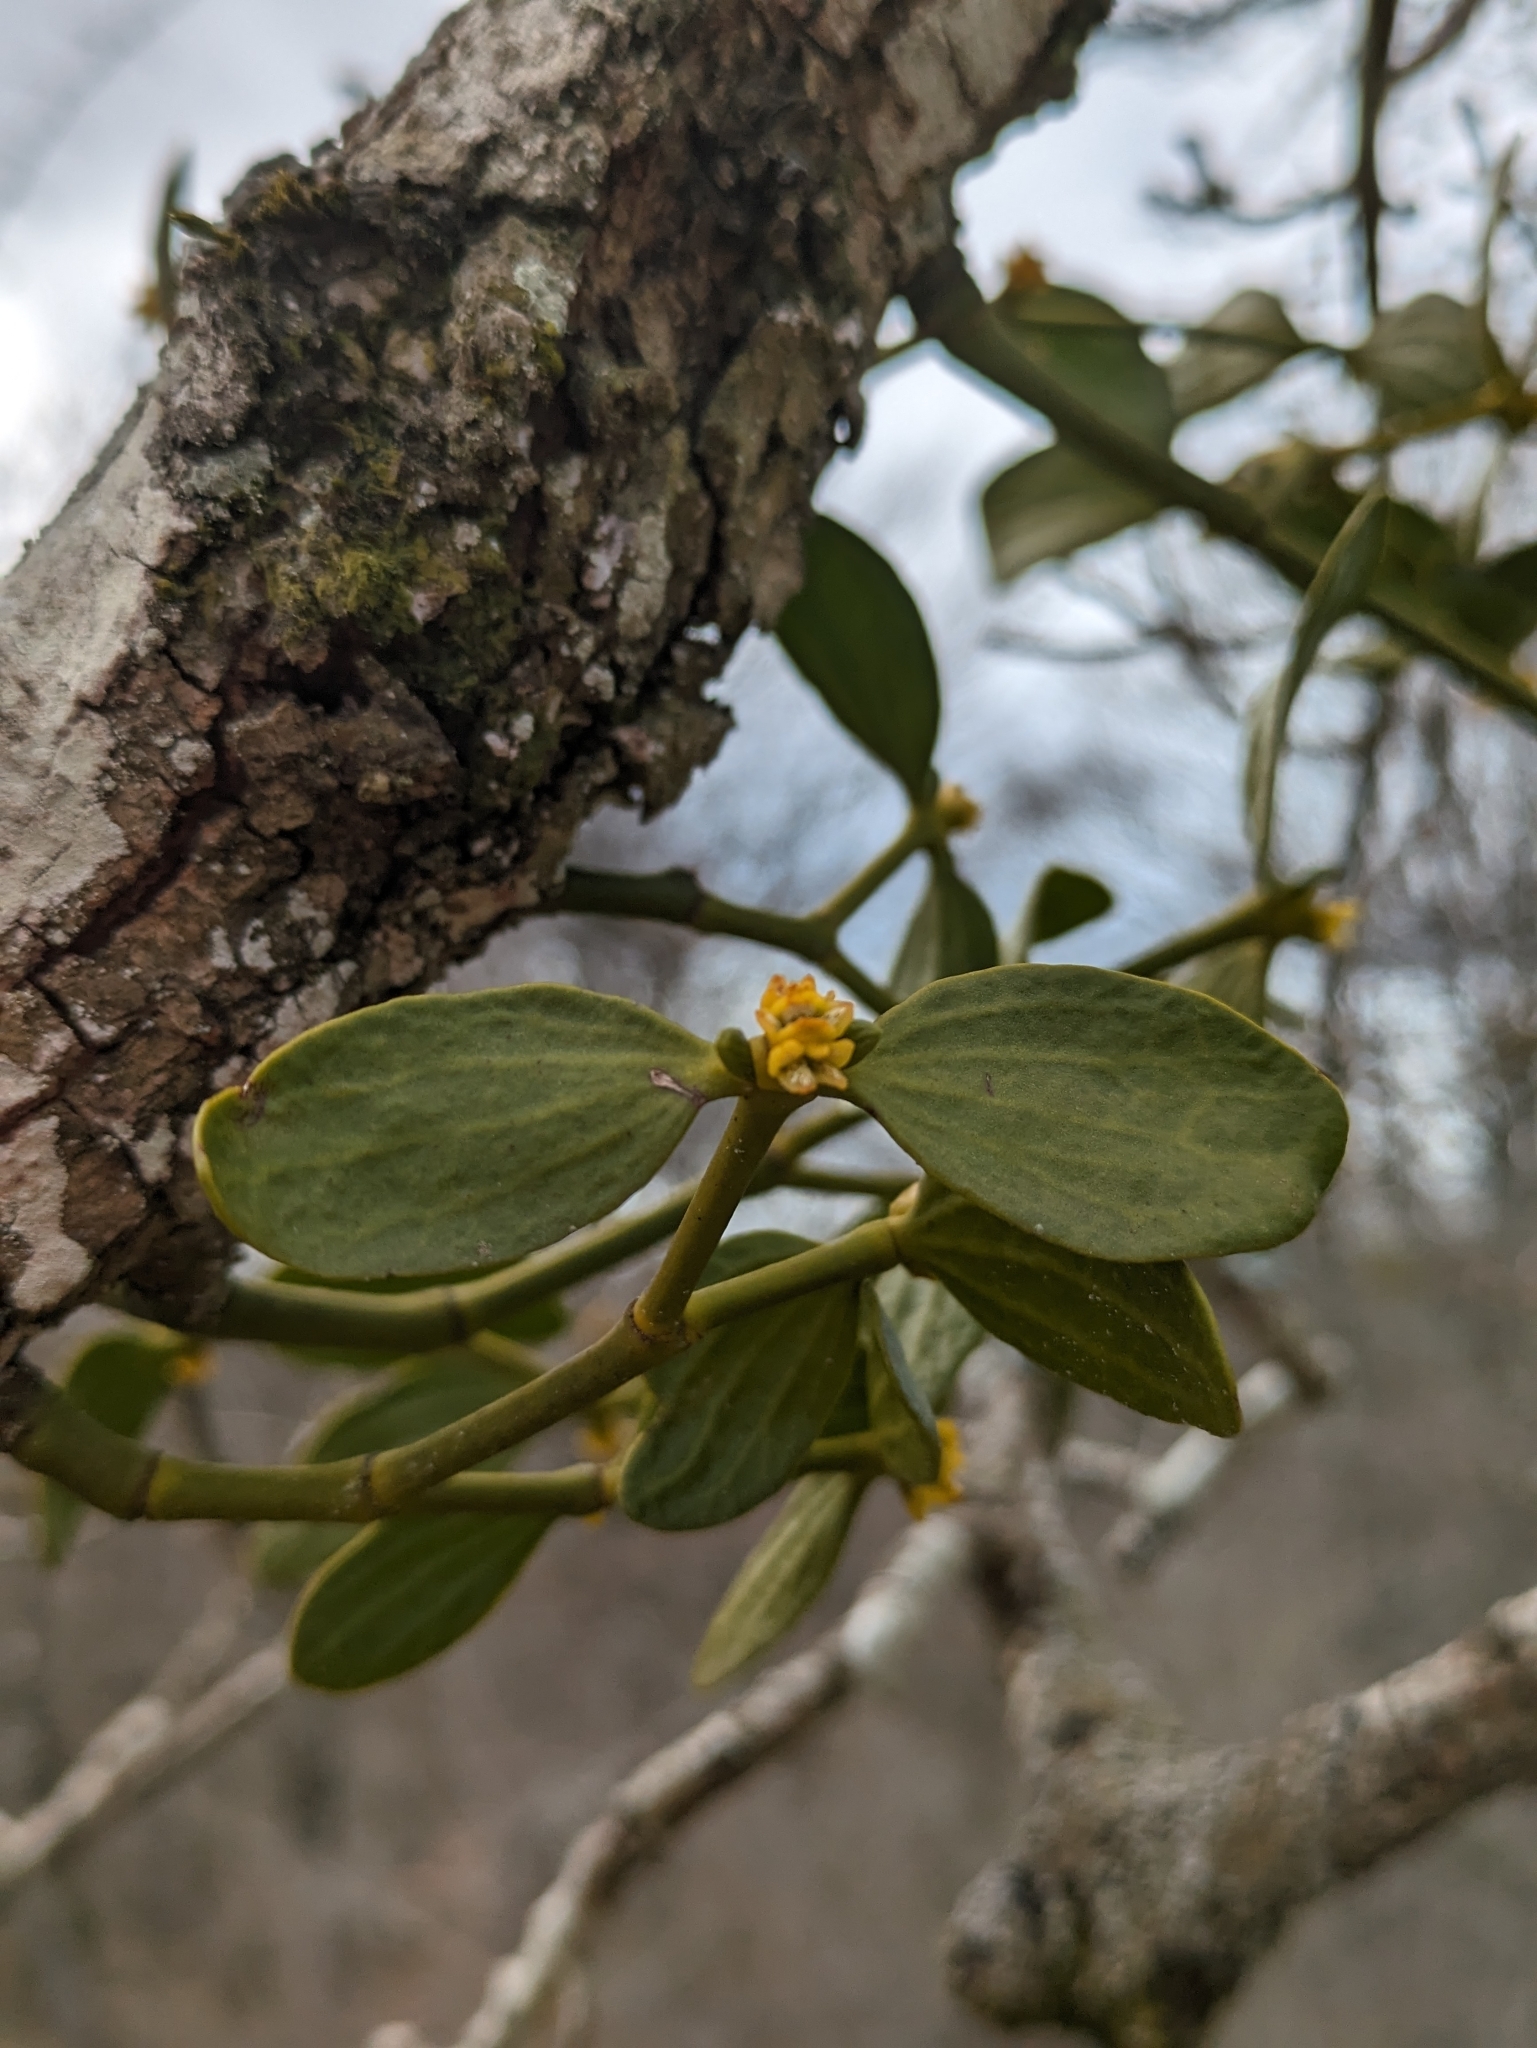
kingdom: Plantae
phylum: Tracheophyta
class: Magnoliopsida
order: Santalales
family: Viscaceae
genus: Viscum
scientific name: Viscum album
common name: Mistletoe
